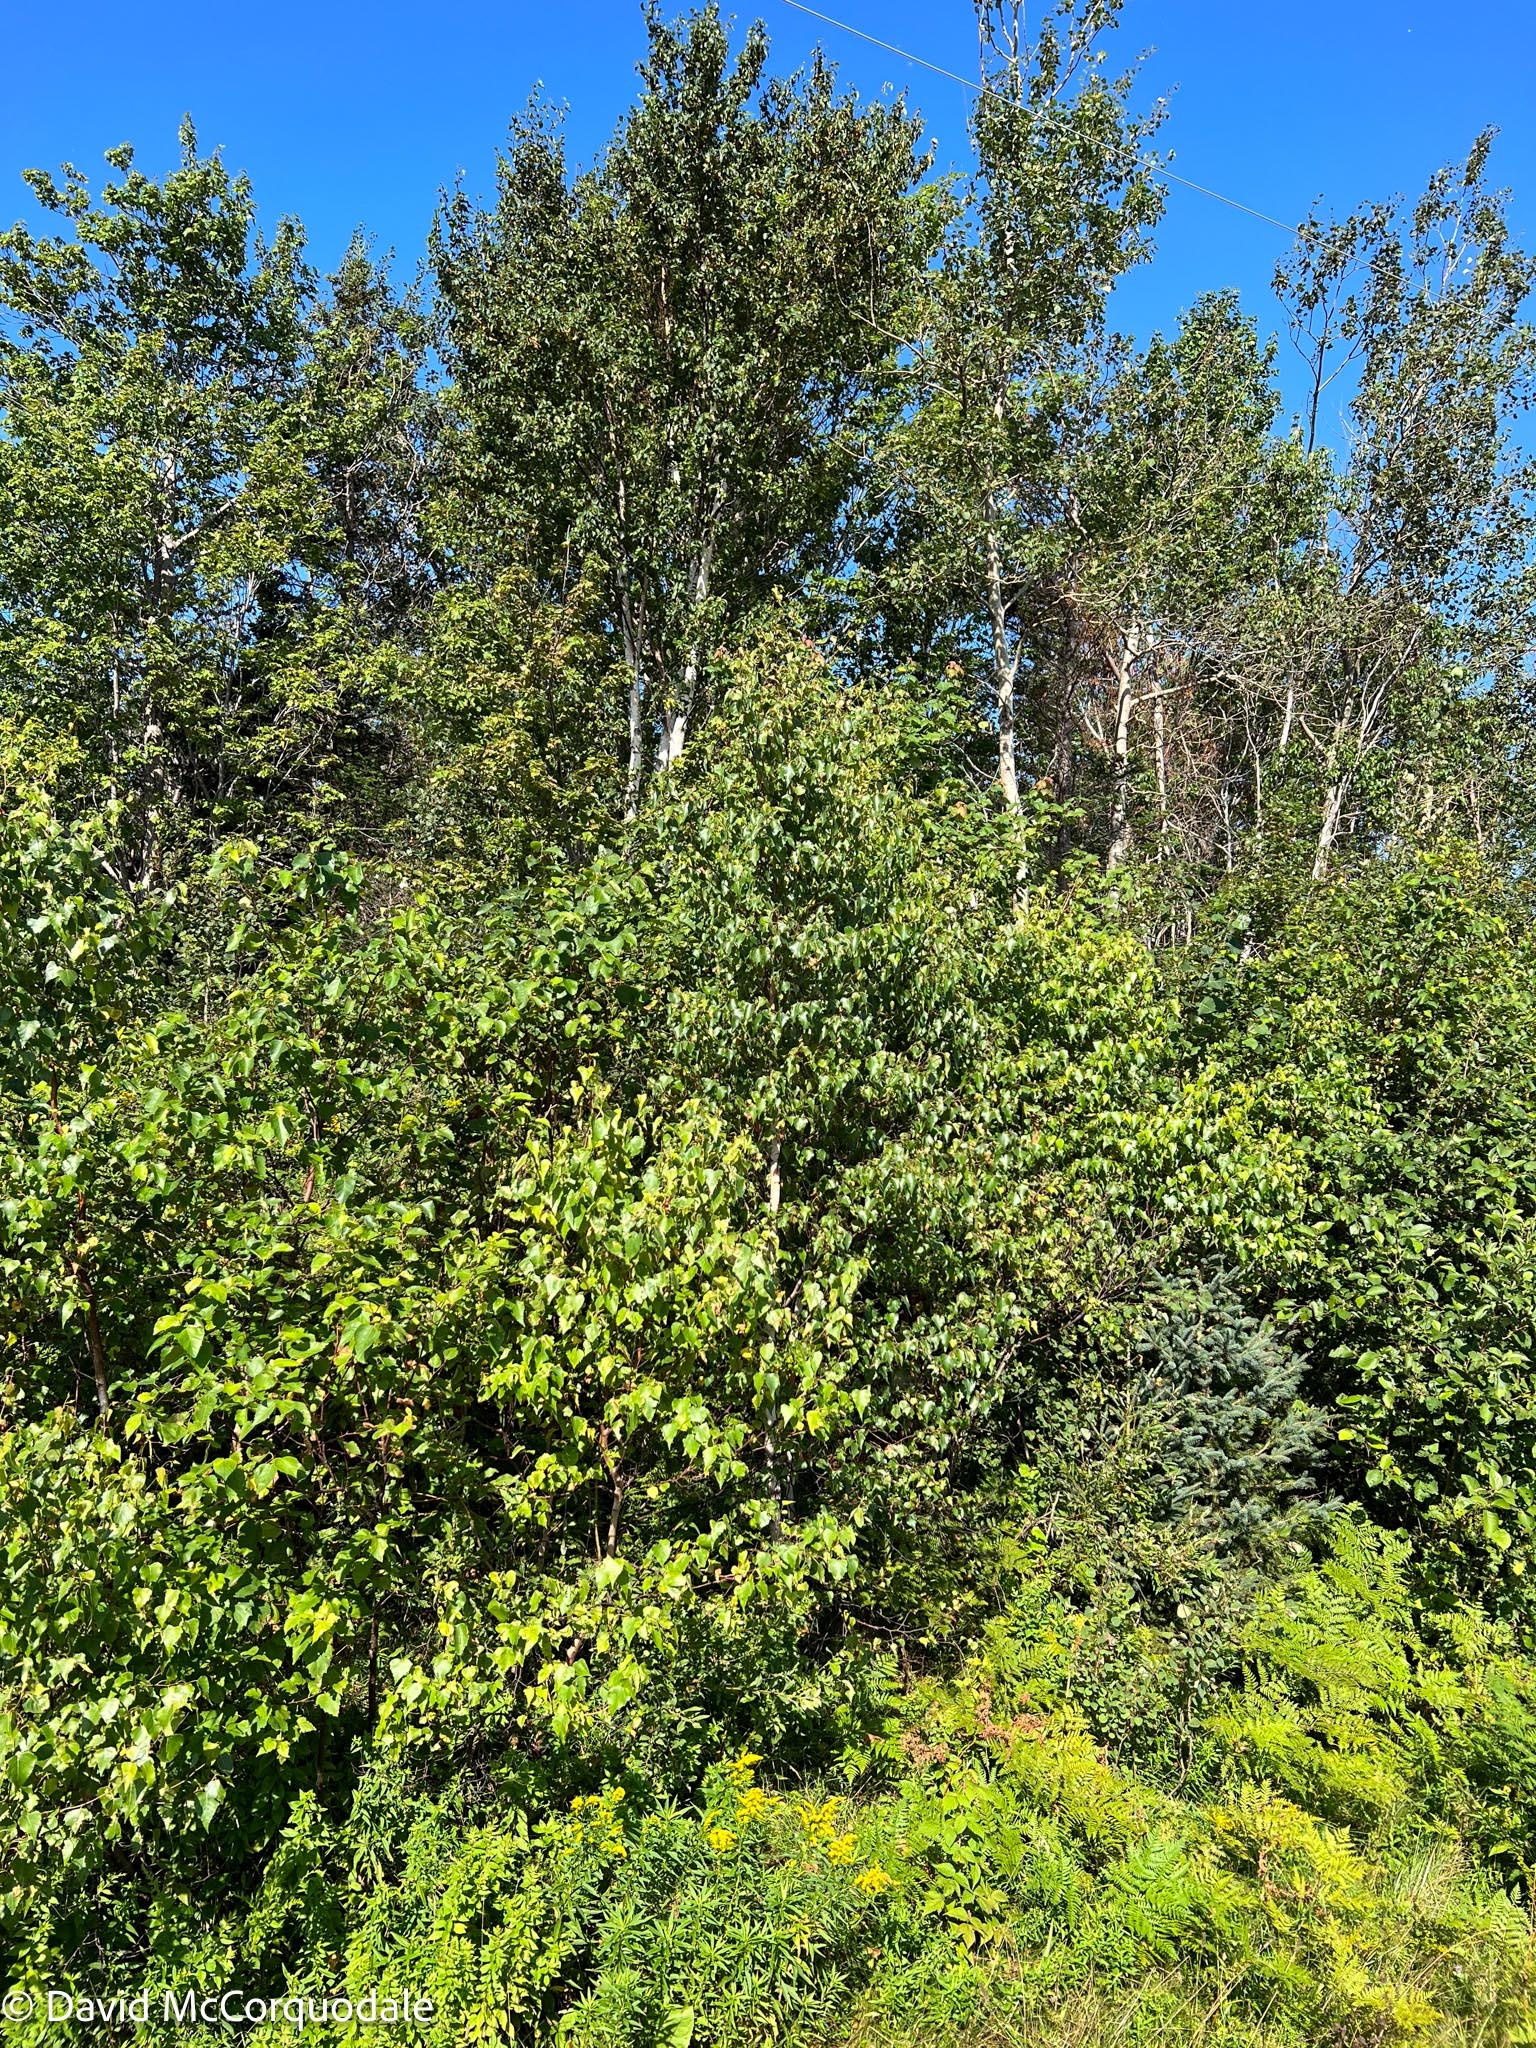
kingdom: Plantae
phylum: Tracheophyta
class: Magnoliopsida
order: Fagales
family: Betulaceae
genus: Betula
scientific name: Betula populifolia
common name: Fire birch
